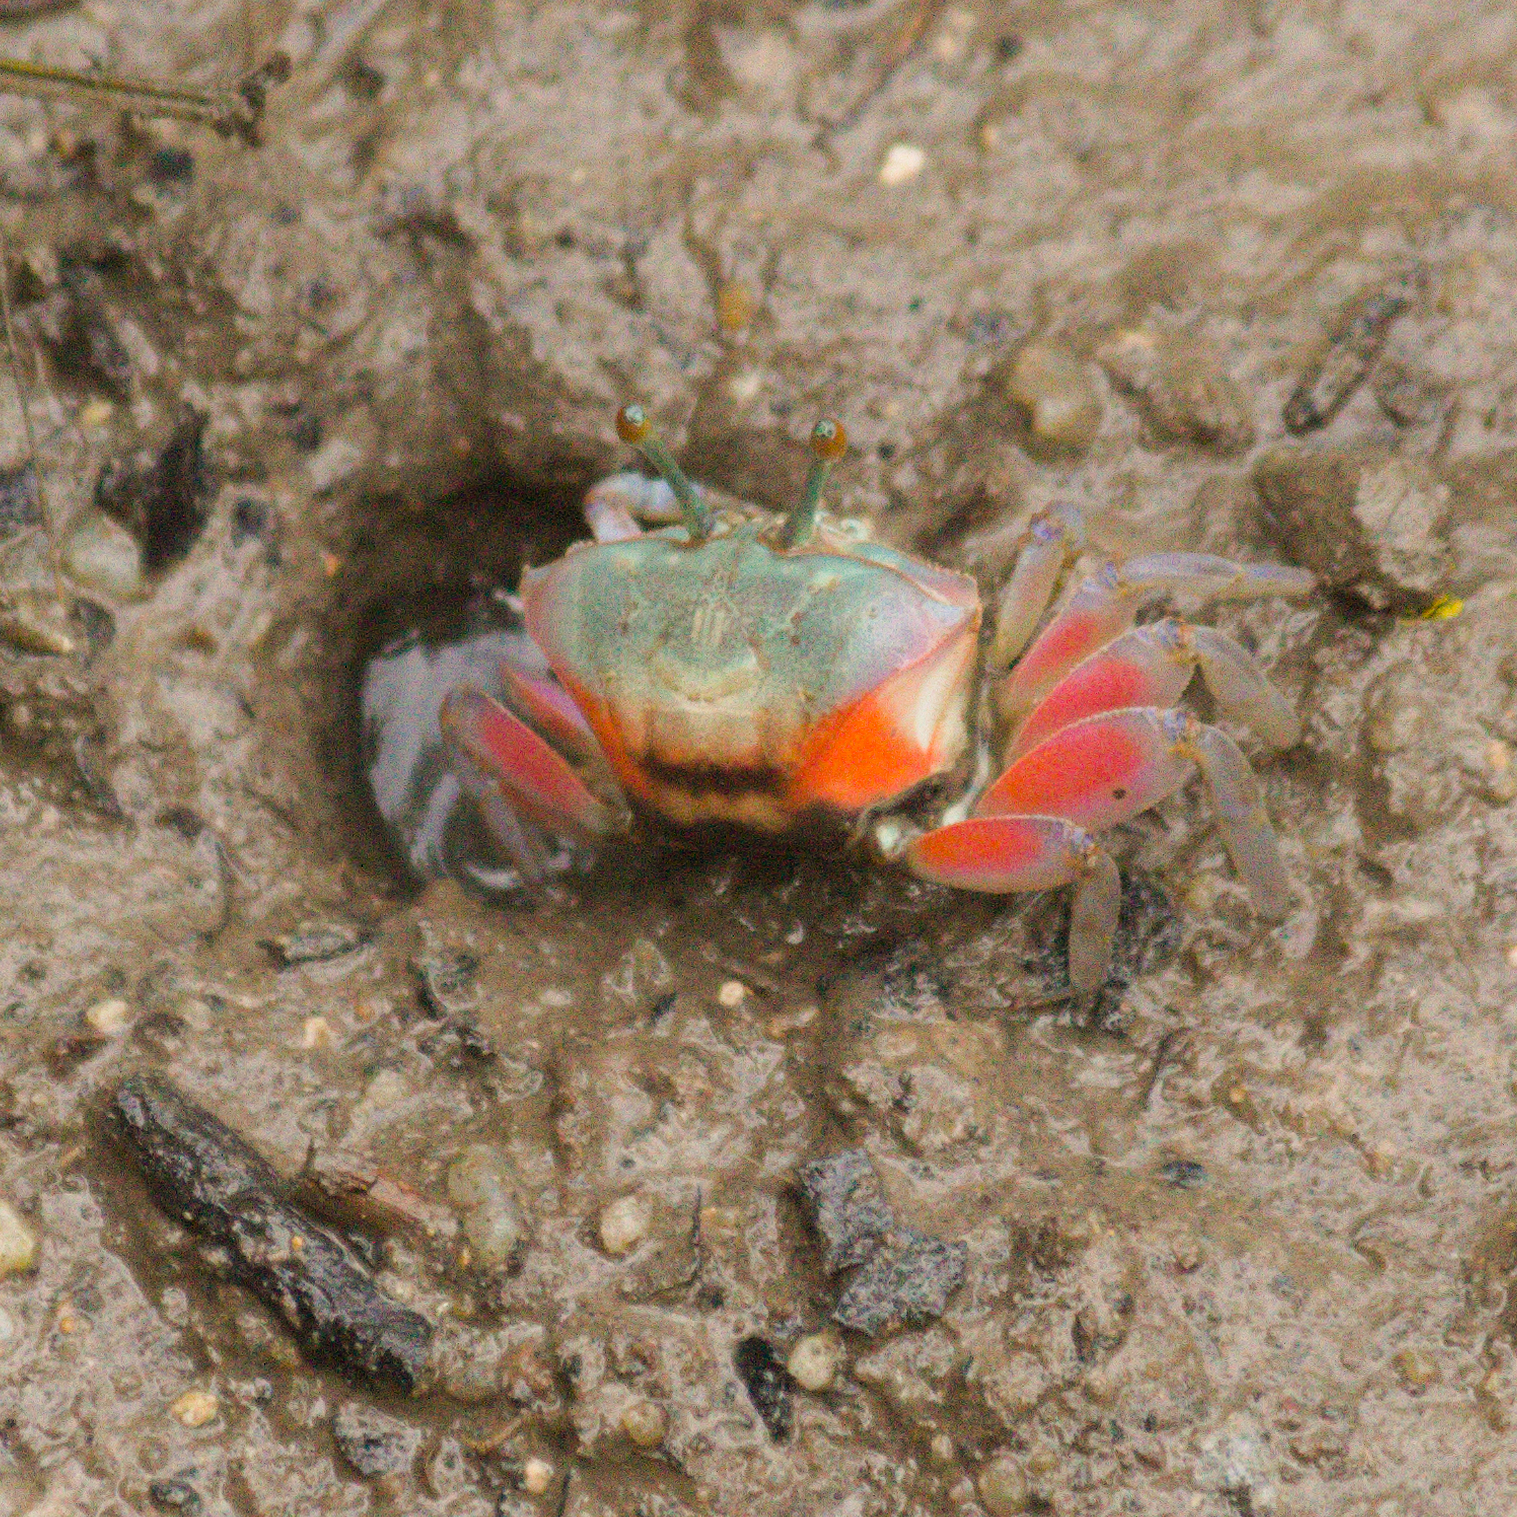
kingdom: Animalia
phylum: Arthropoda
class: Malacostraca
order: Decapoda
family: Ocypodidae
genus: Tubuca
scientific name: Tubuca rosea
